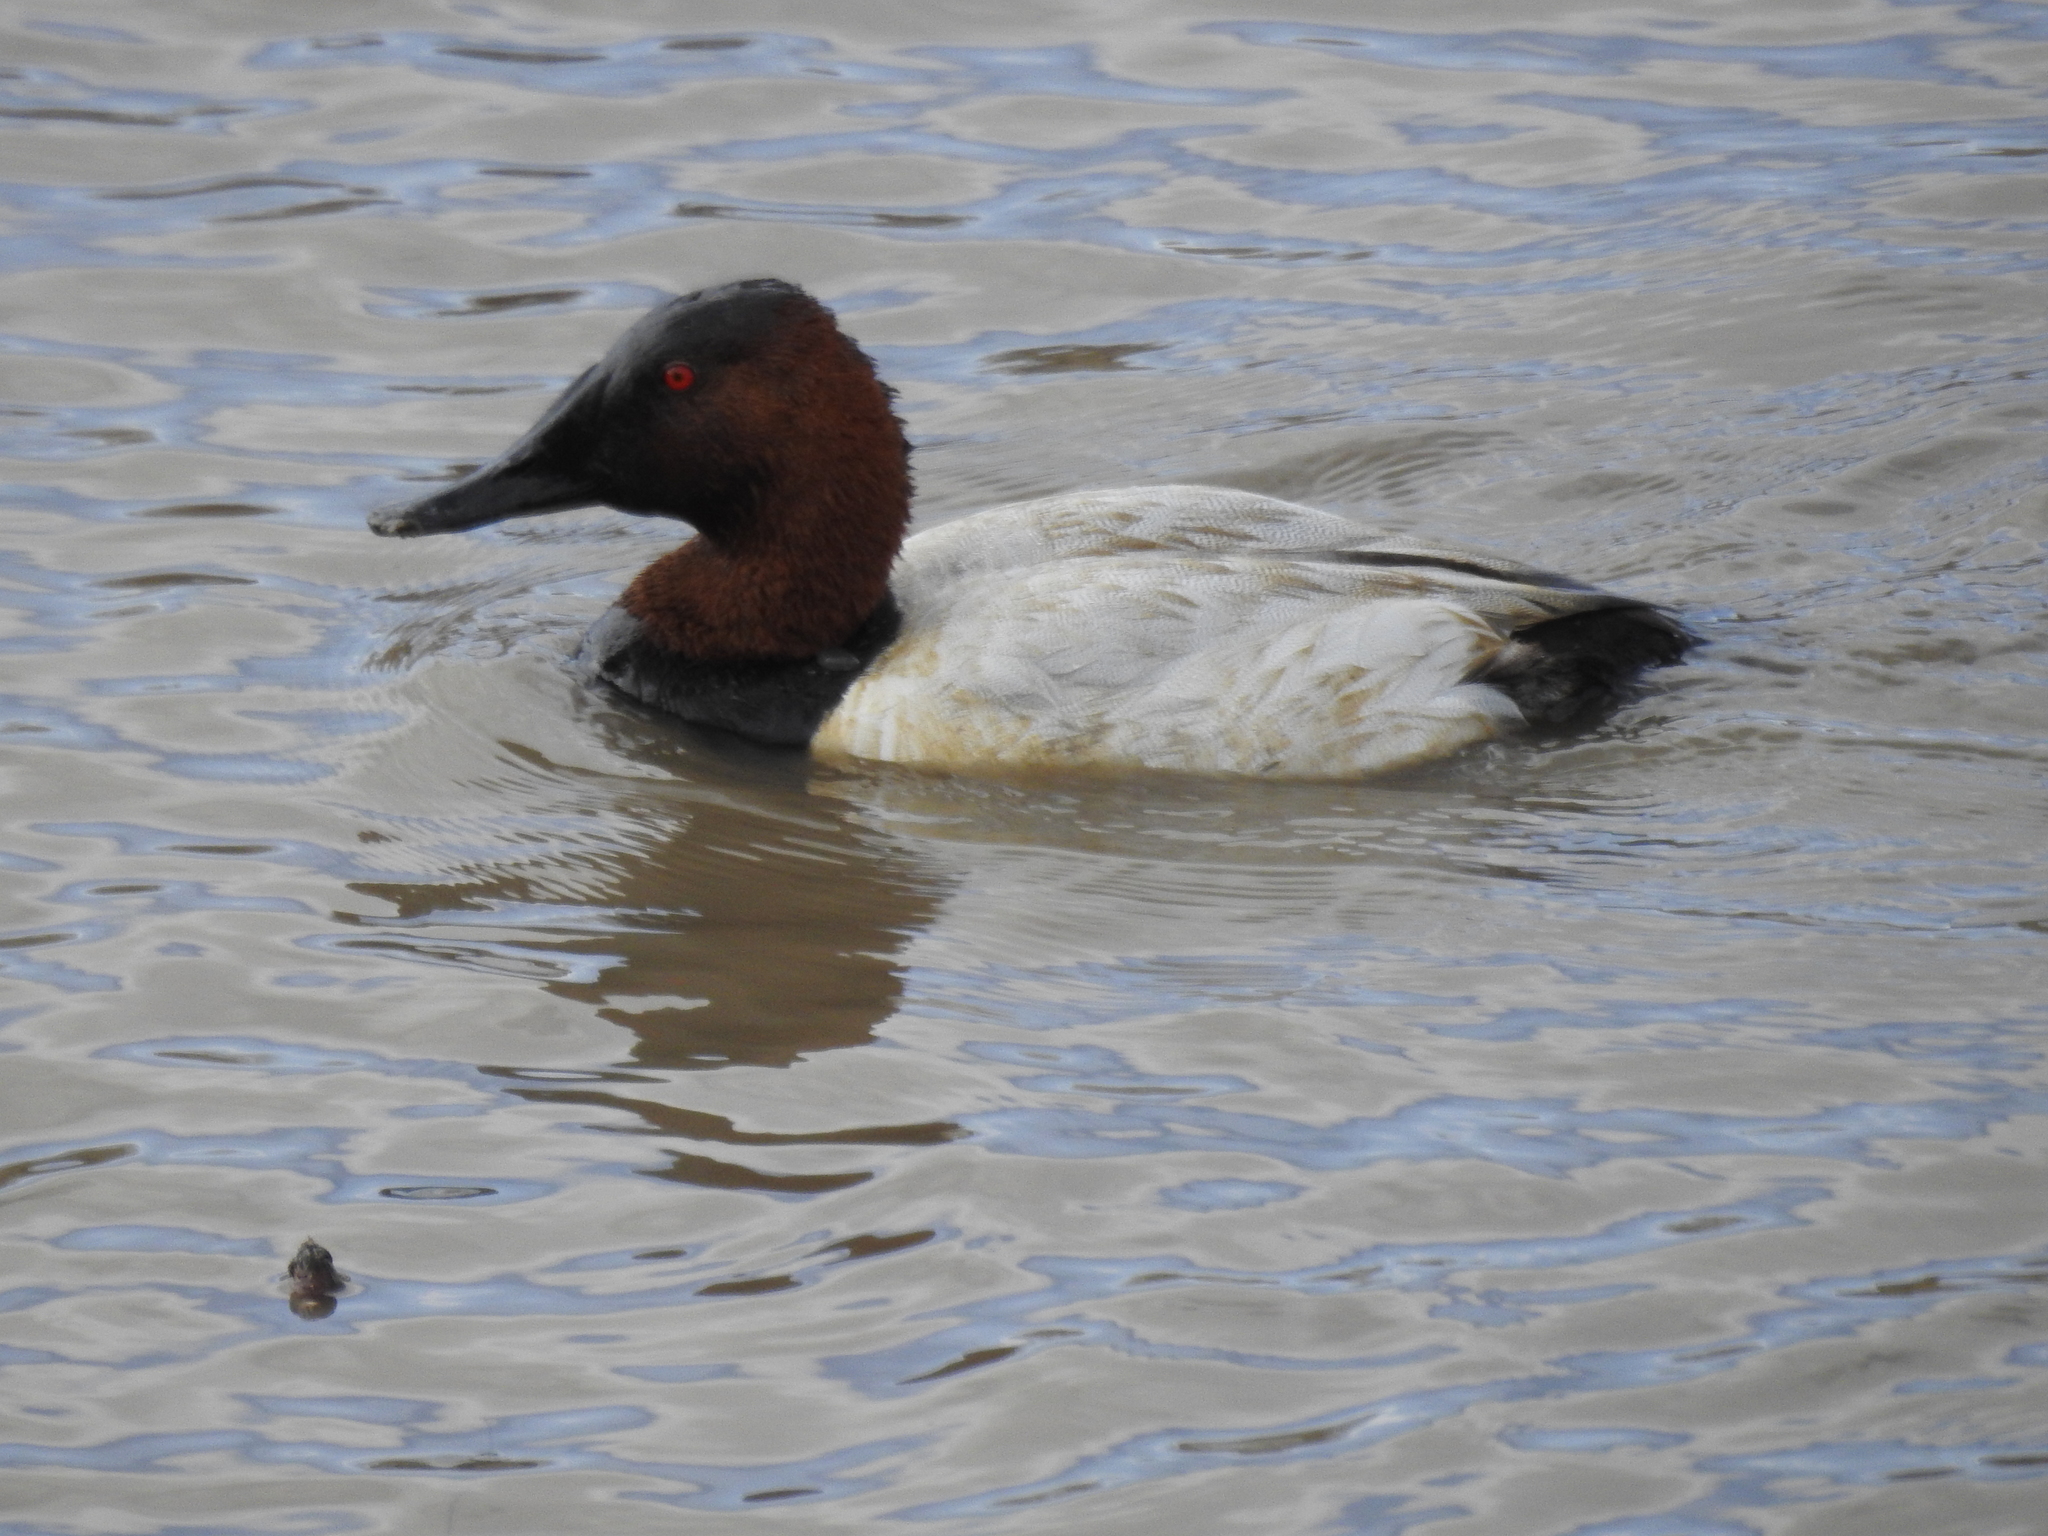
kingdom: Animalia
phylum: Chordata
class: Aves
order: Anseriformes
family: Anatidae
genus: Aythya
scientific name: Aythya valisineria
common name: Canvasback
